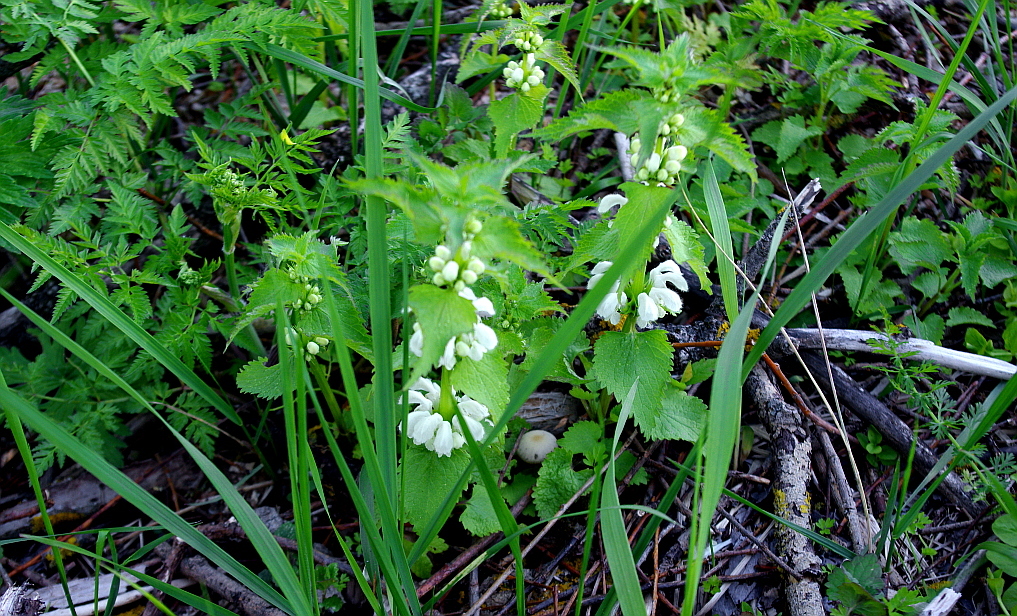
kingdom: Plantae
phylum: Tracheophyta
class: Magnoliopsida
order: Lamiales
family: Lamiaceae
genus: Lamium
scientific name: Lamium album
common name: White dead-nettle
